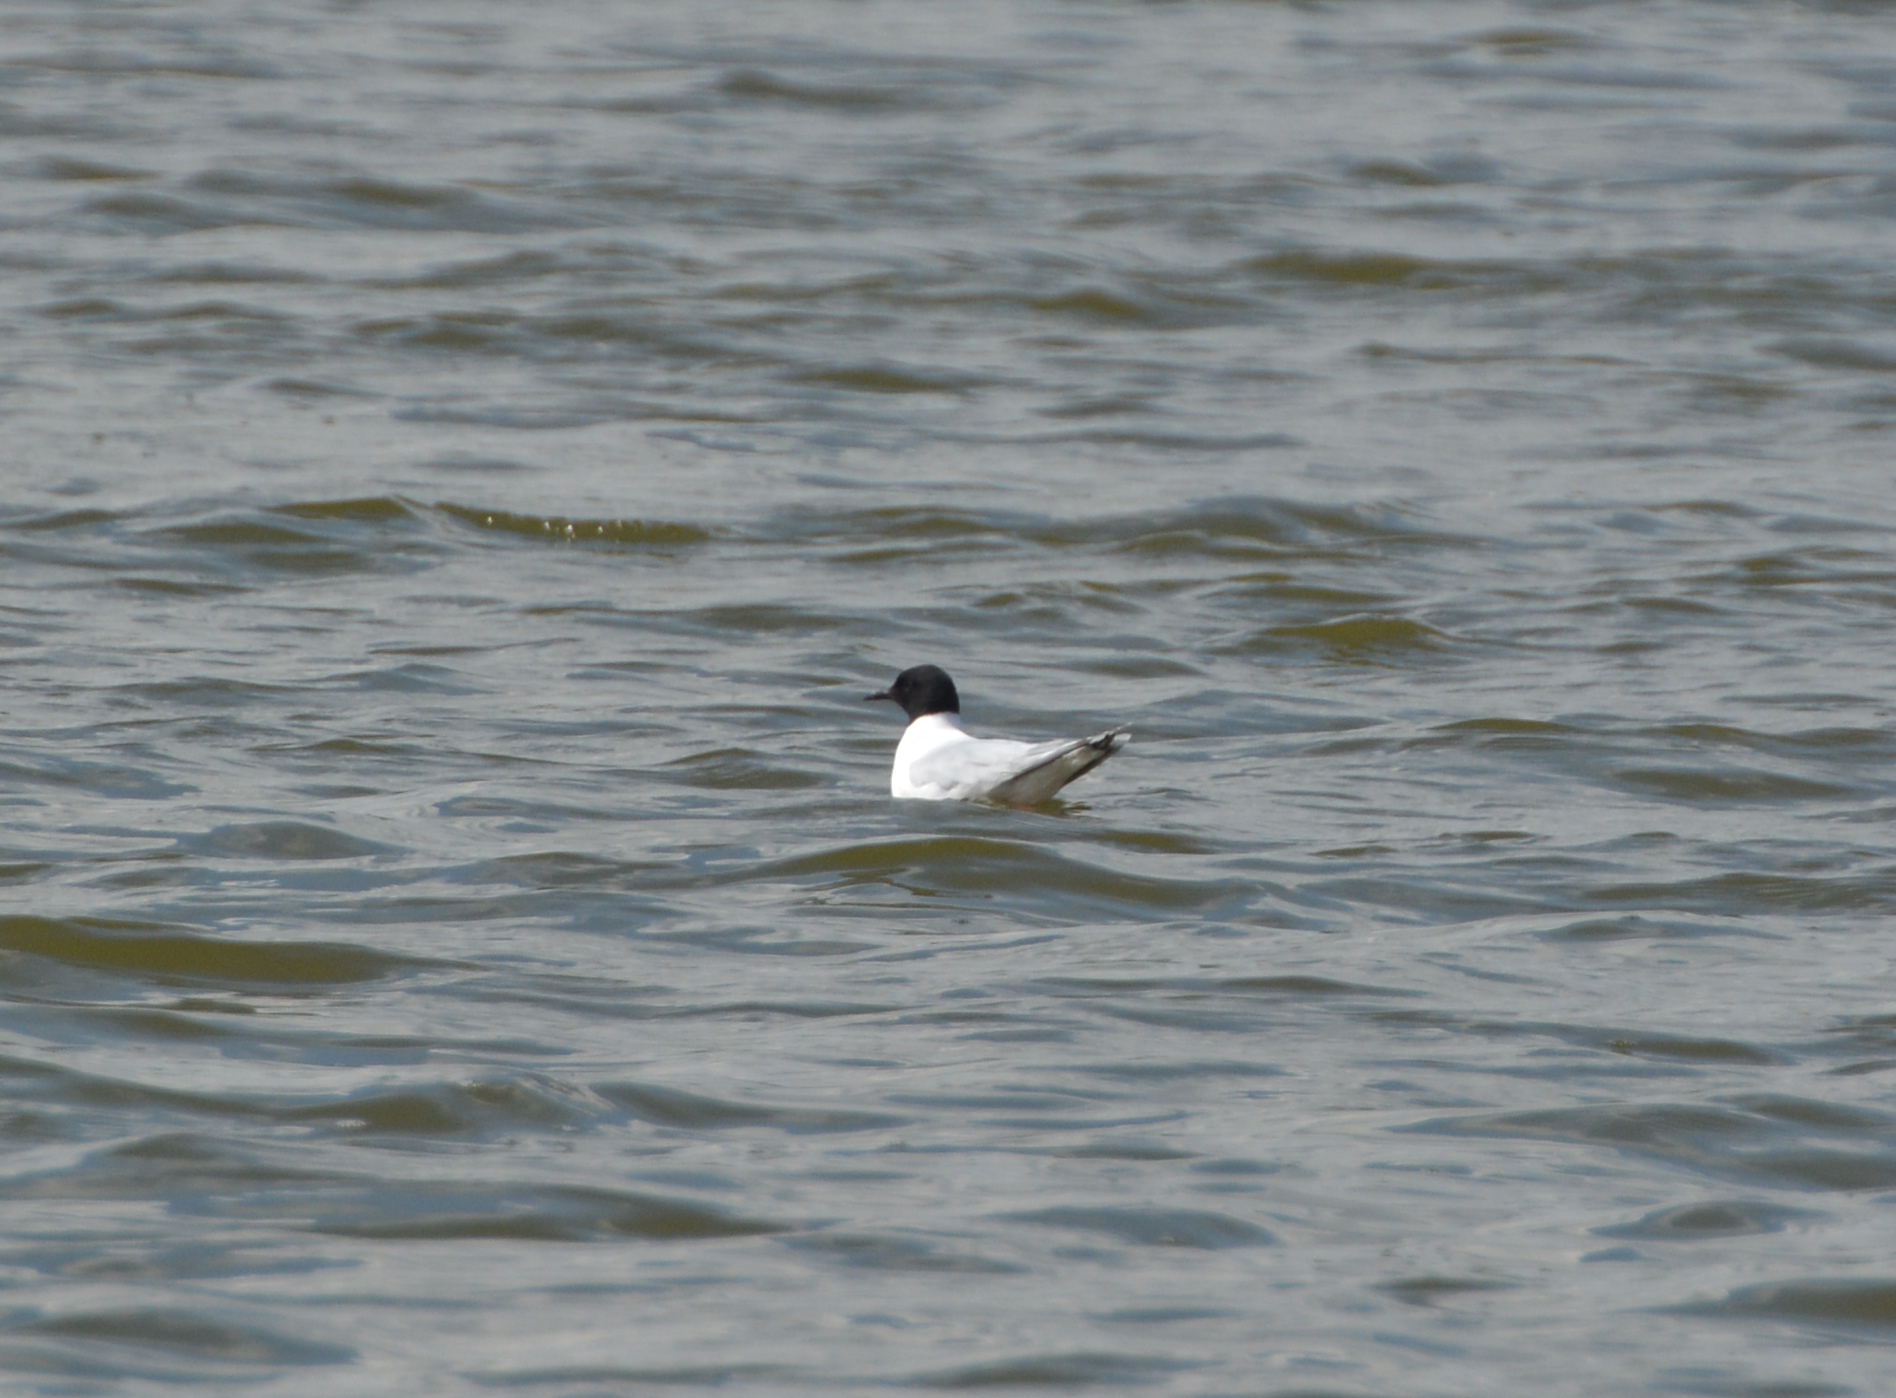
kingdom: Animalia
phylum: Chordata
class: Aves
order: Charadriiformes
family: Laridae
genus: Hydrocoloeus
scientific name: Hydrocoloeus minutus
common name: Little gull
